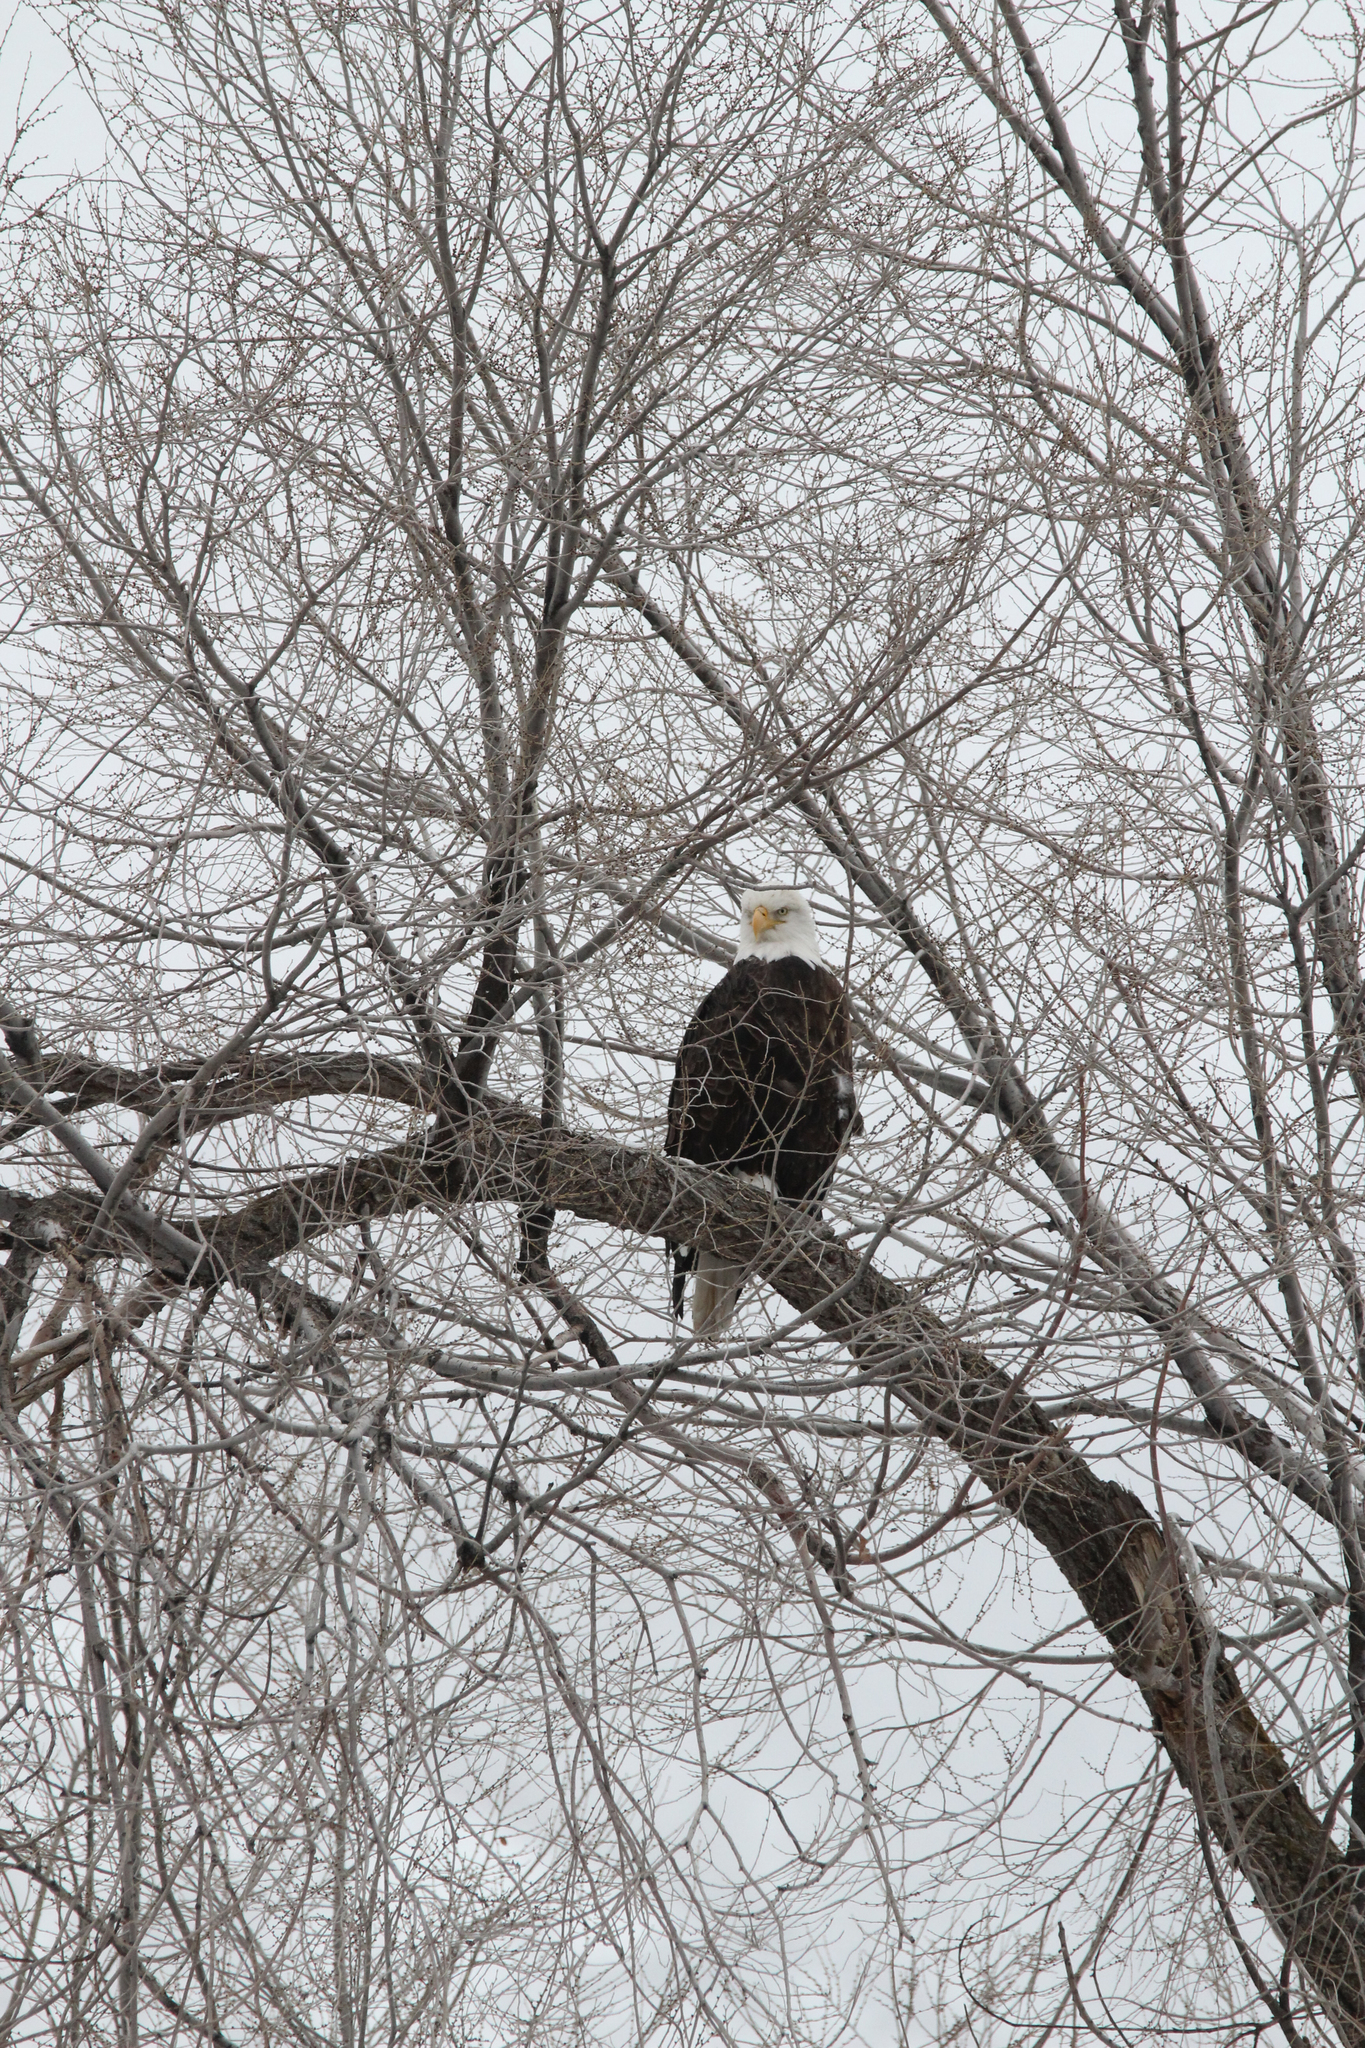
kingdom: Animalia
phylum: Chordata
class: Aves
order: Accipitriformes
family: Accipitridae
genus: Haliaeetus
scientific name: Haliaeetus leucocephalus
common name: Bald eagle
